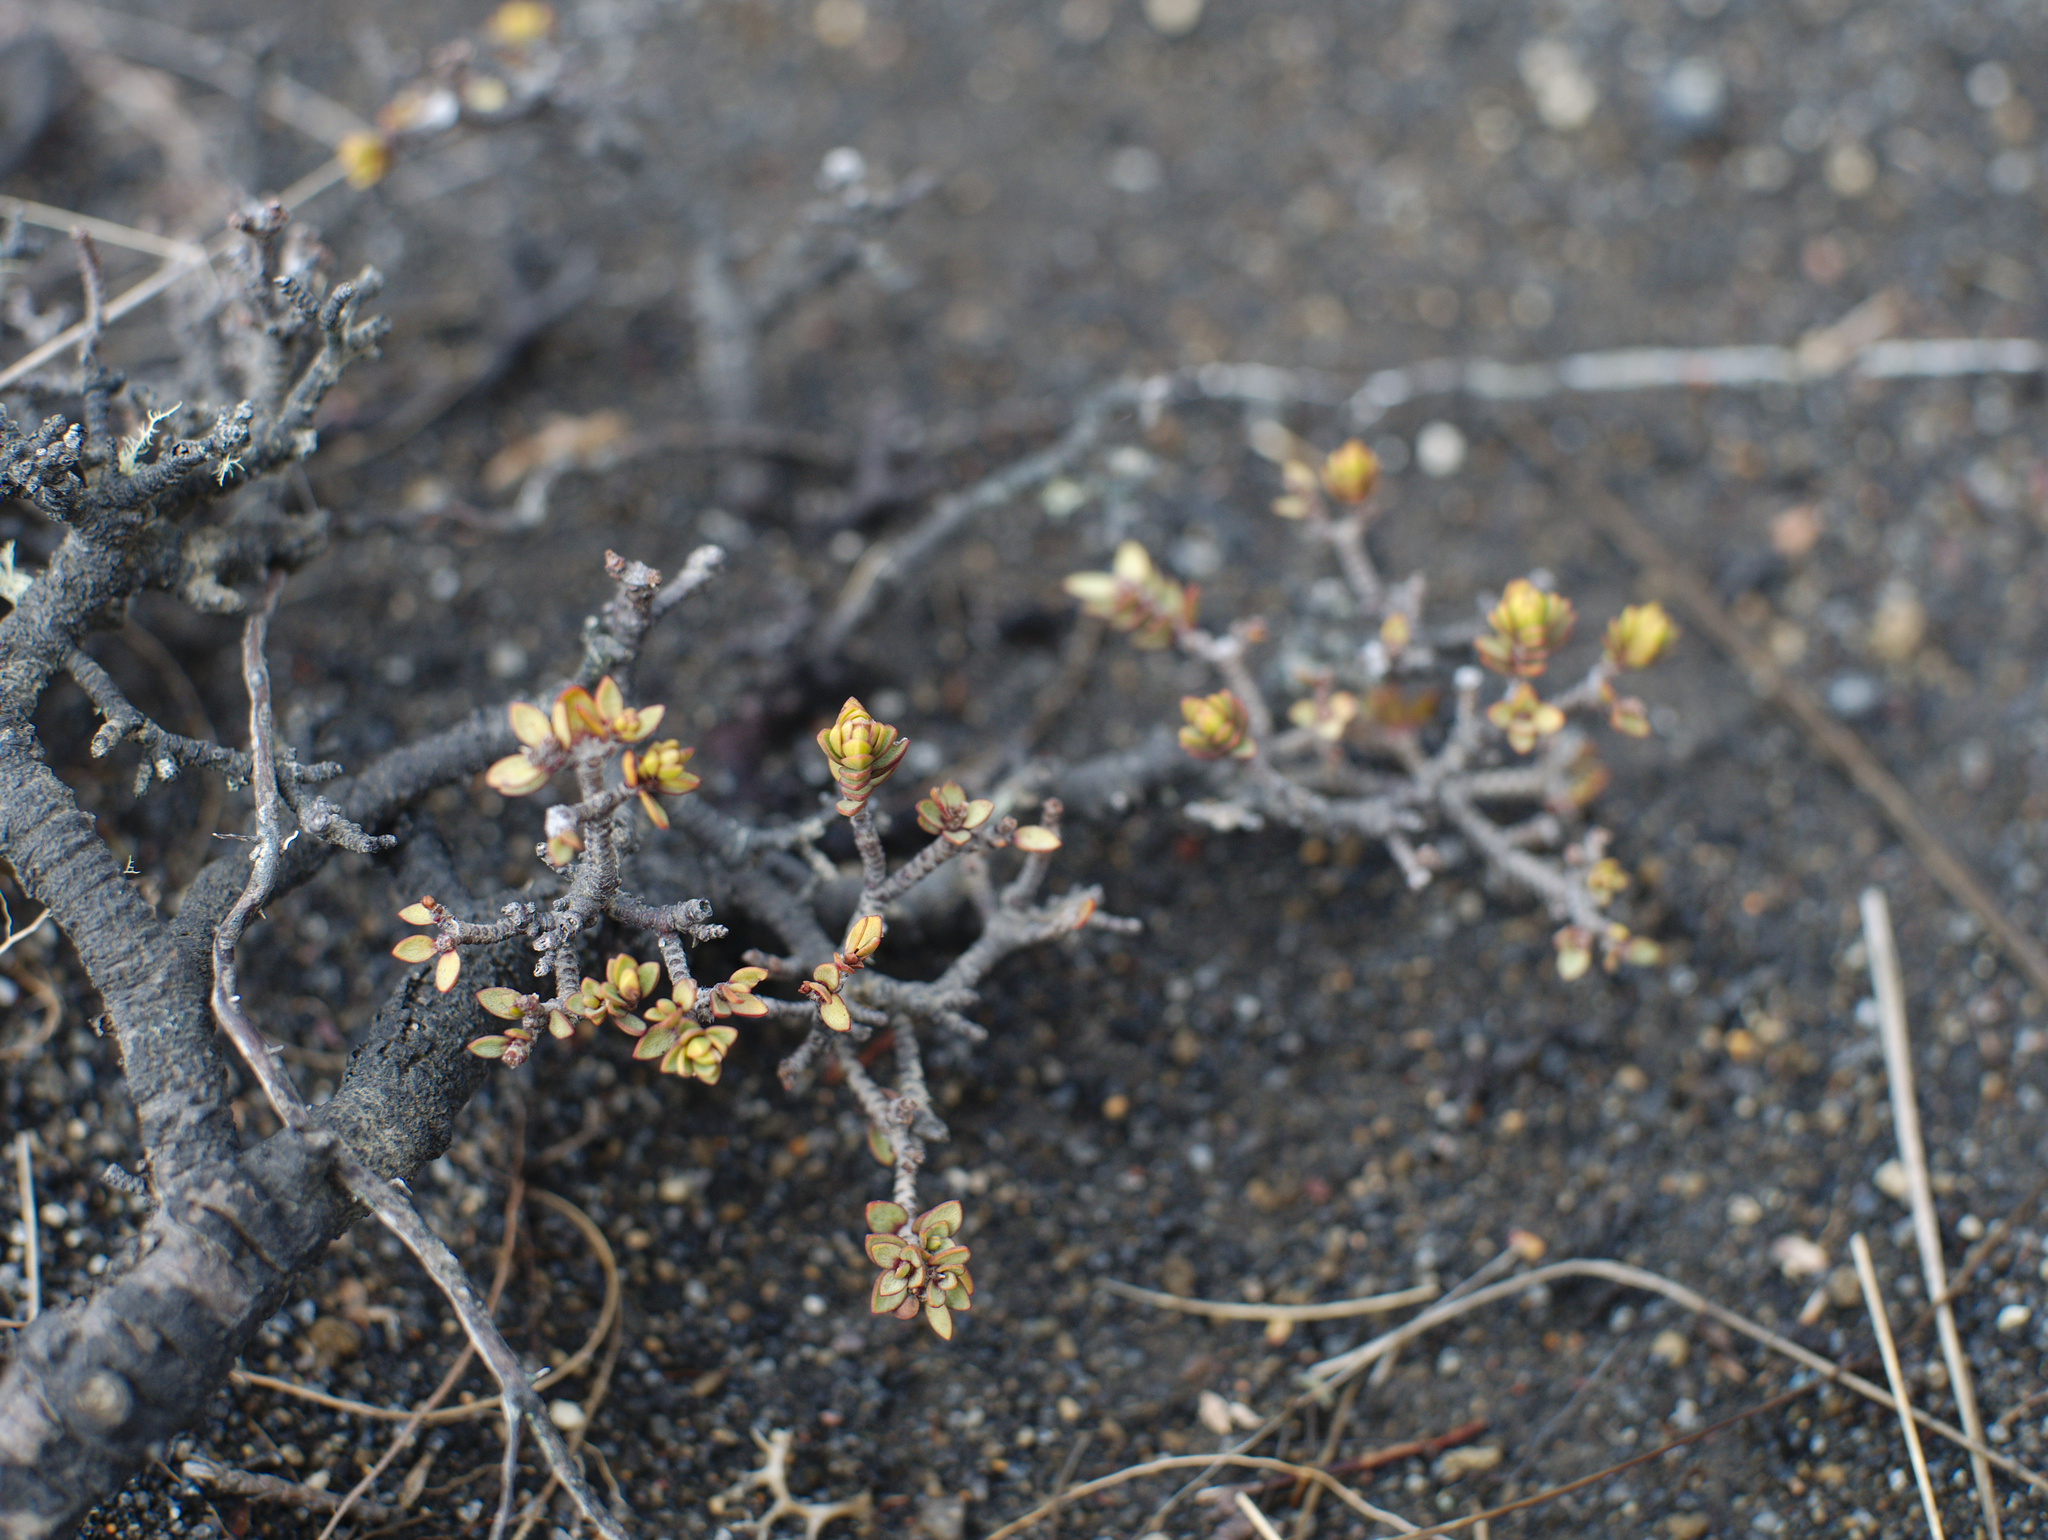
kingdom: Plantae
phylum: Tracheophyta
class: Magnoliopsida
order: Malvales
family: Thymelaeaceae
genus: Pimelea
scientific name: Pimelea microphylla
